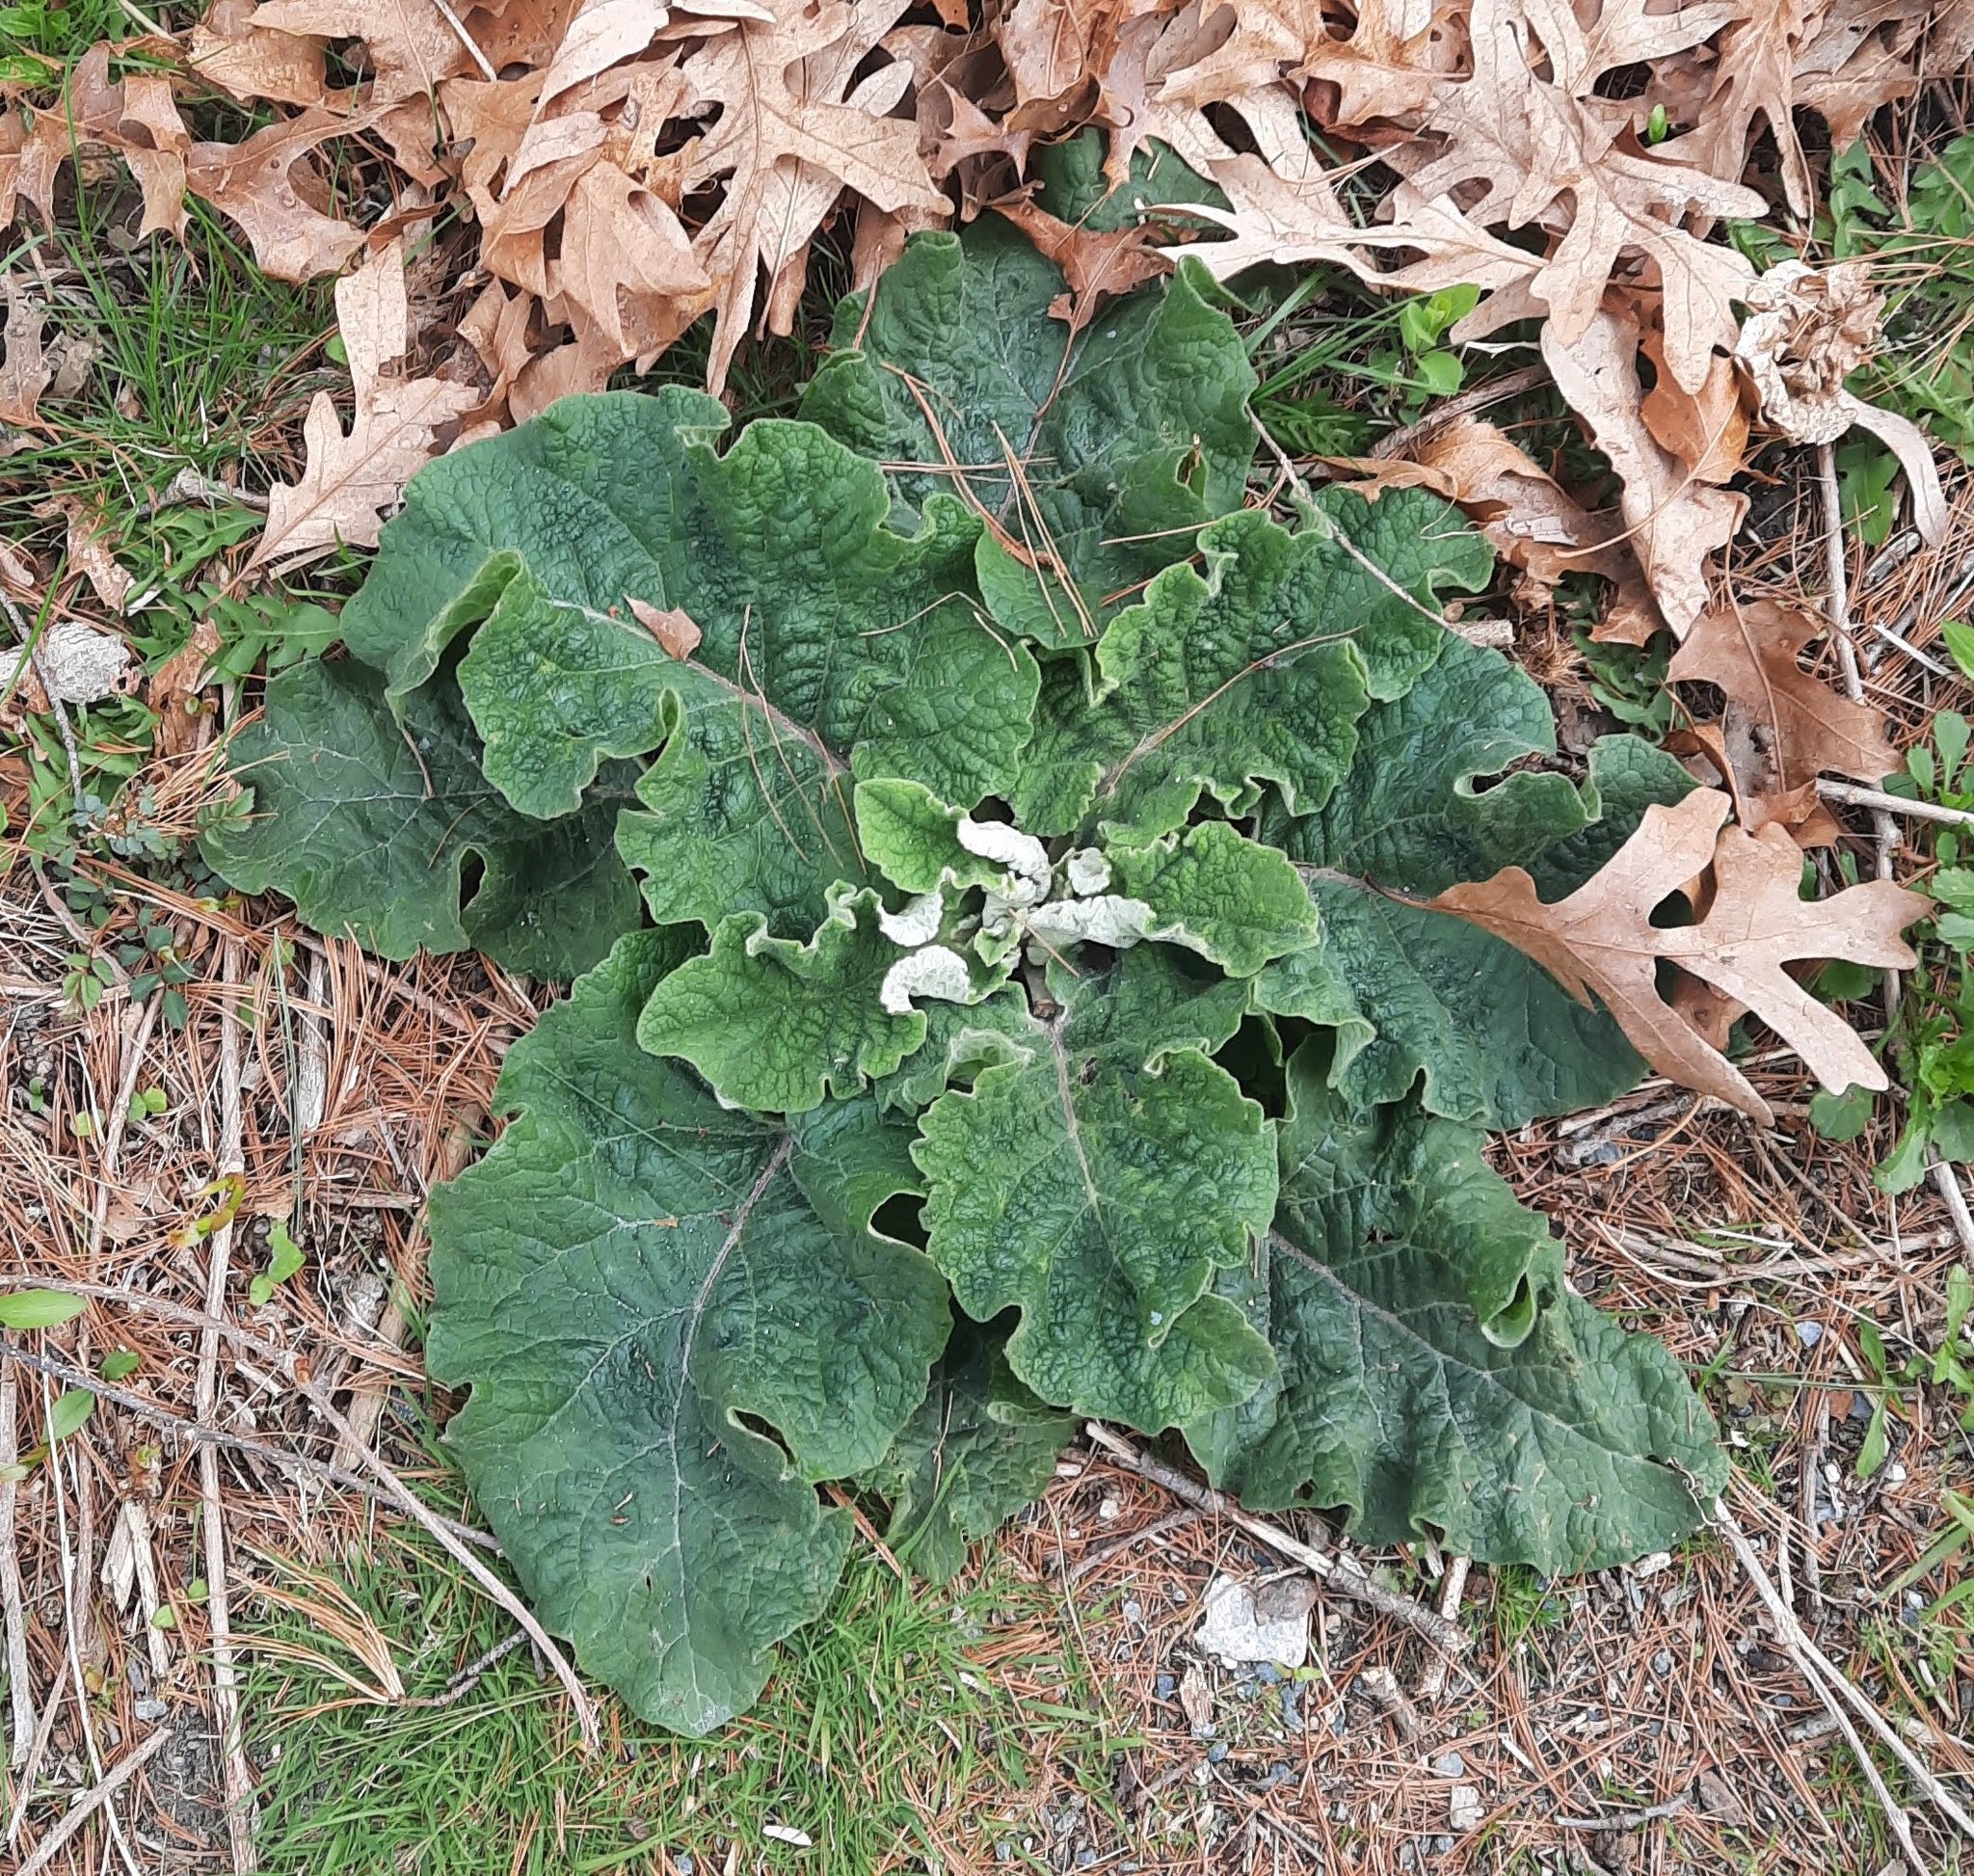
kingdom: Plantae
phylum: Tracheophyta
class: Magnoliopsida
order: Asterales
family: Asteraceae
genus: Arctium
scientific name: Arctium
